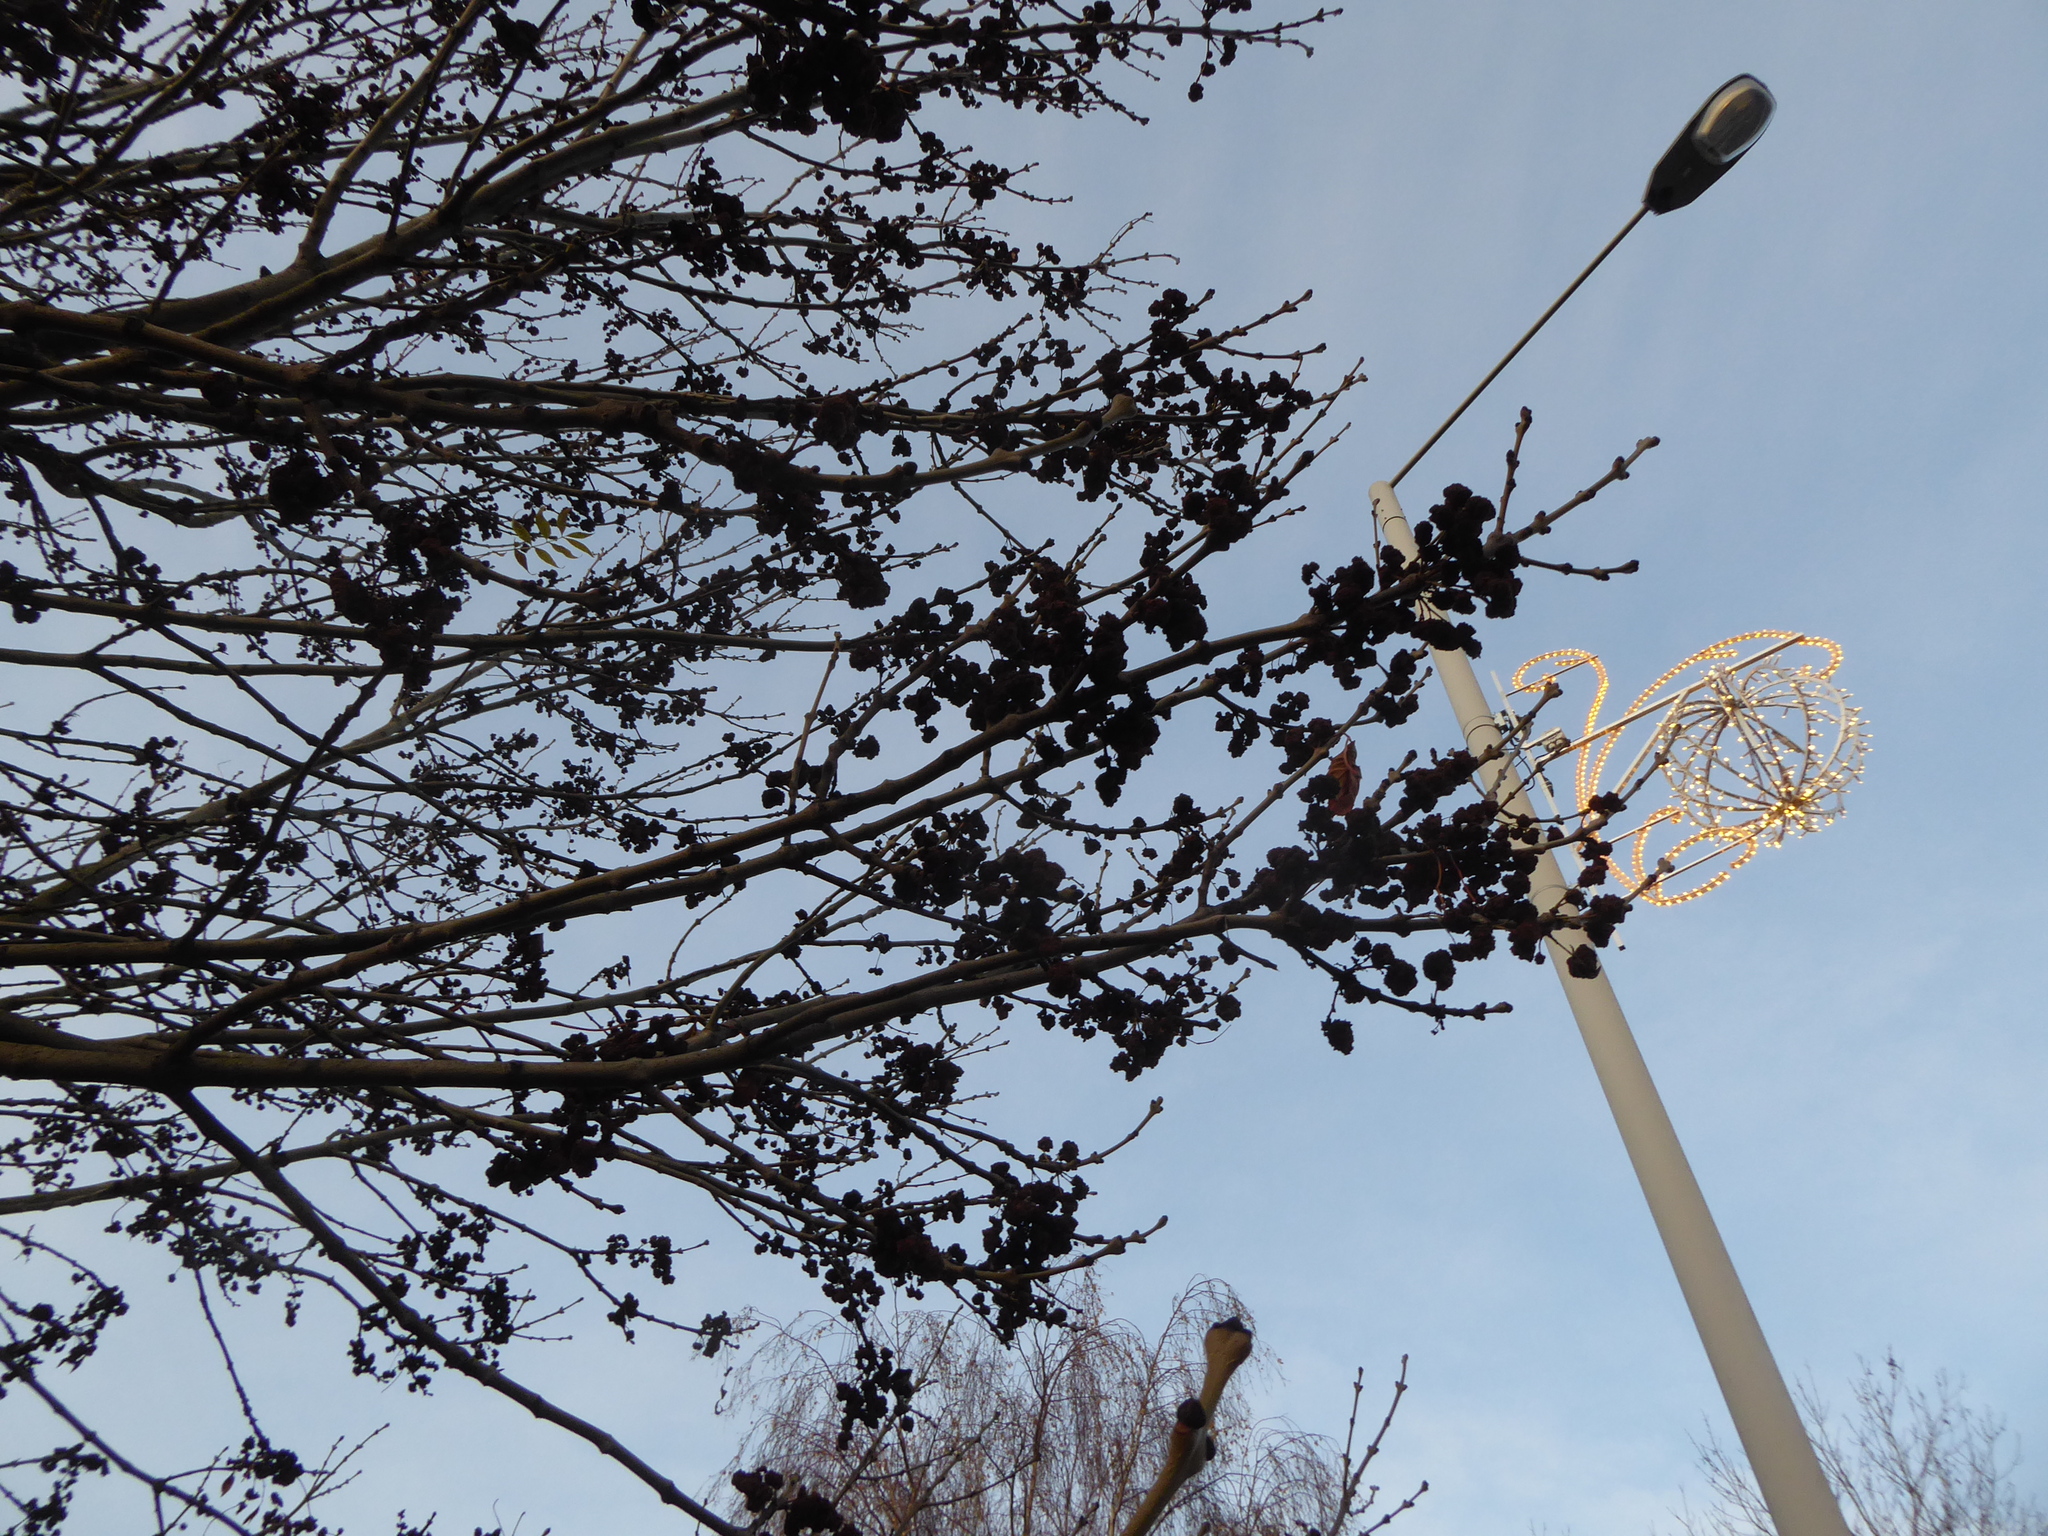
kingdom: Animalia
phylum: Arthropoda
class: Arachnida
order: Trombidiformes
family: Eriophyidae
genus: Aceria
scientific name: Aceria fraxinivora
